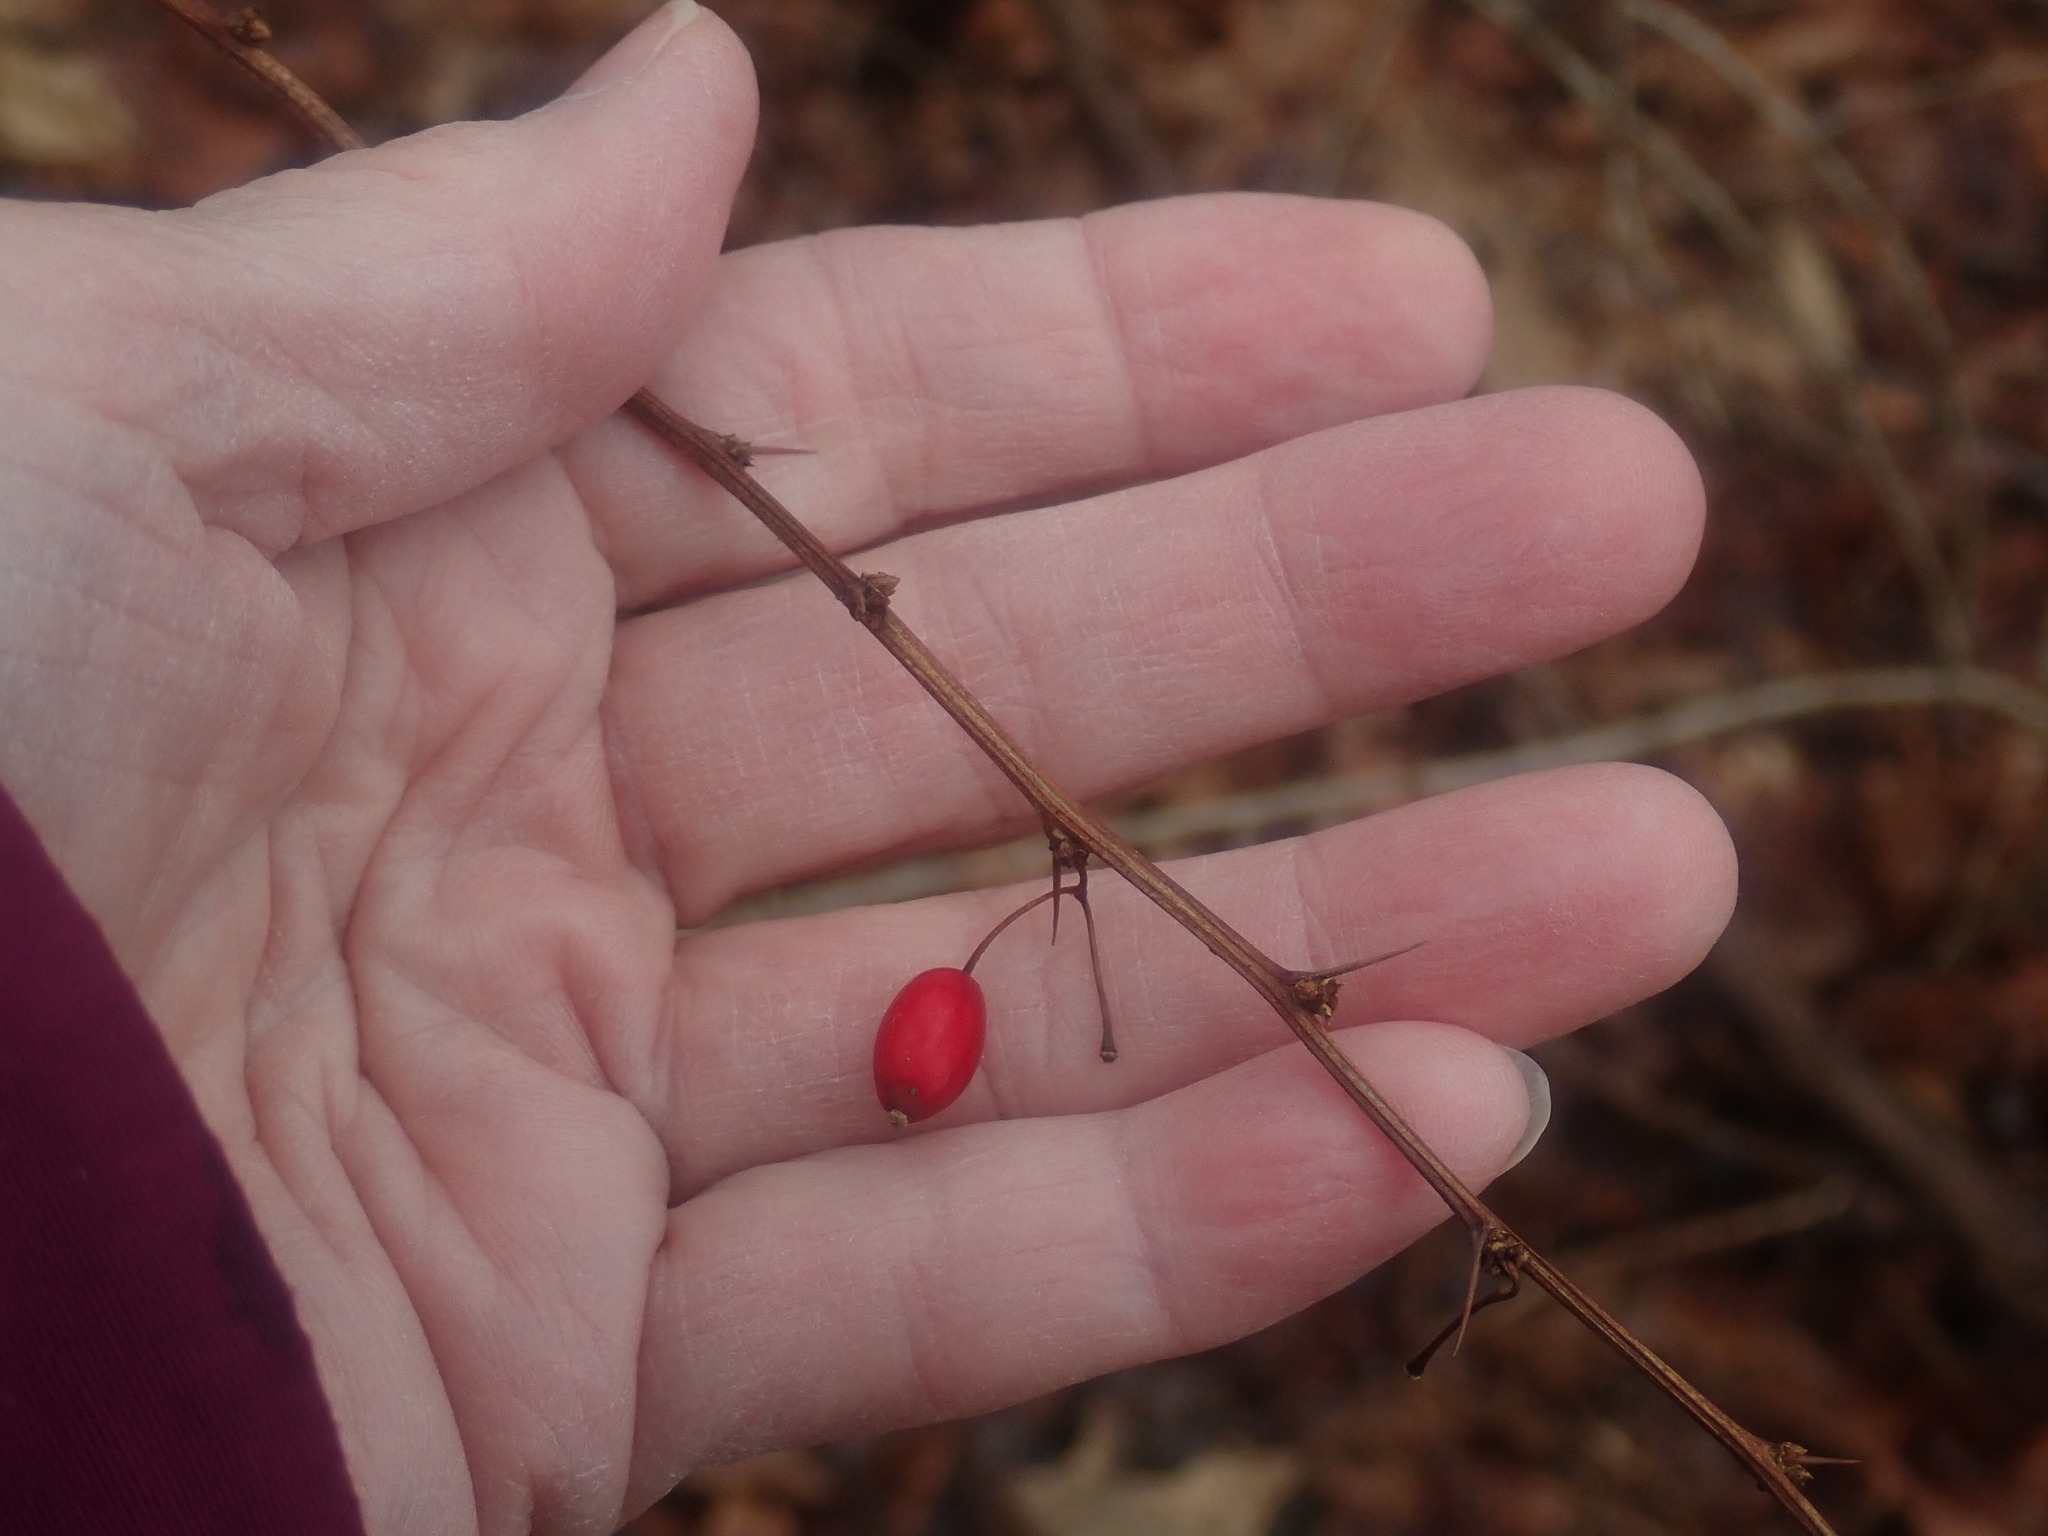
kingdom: Plantae
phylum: Tracheophyta
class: Magnoliopsida
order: Ranunculales
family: Berberidaceae
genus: Berberis
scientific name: Berberis thunbergii
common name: Japanese barberry
